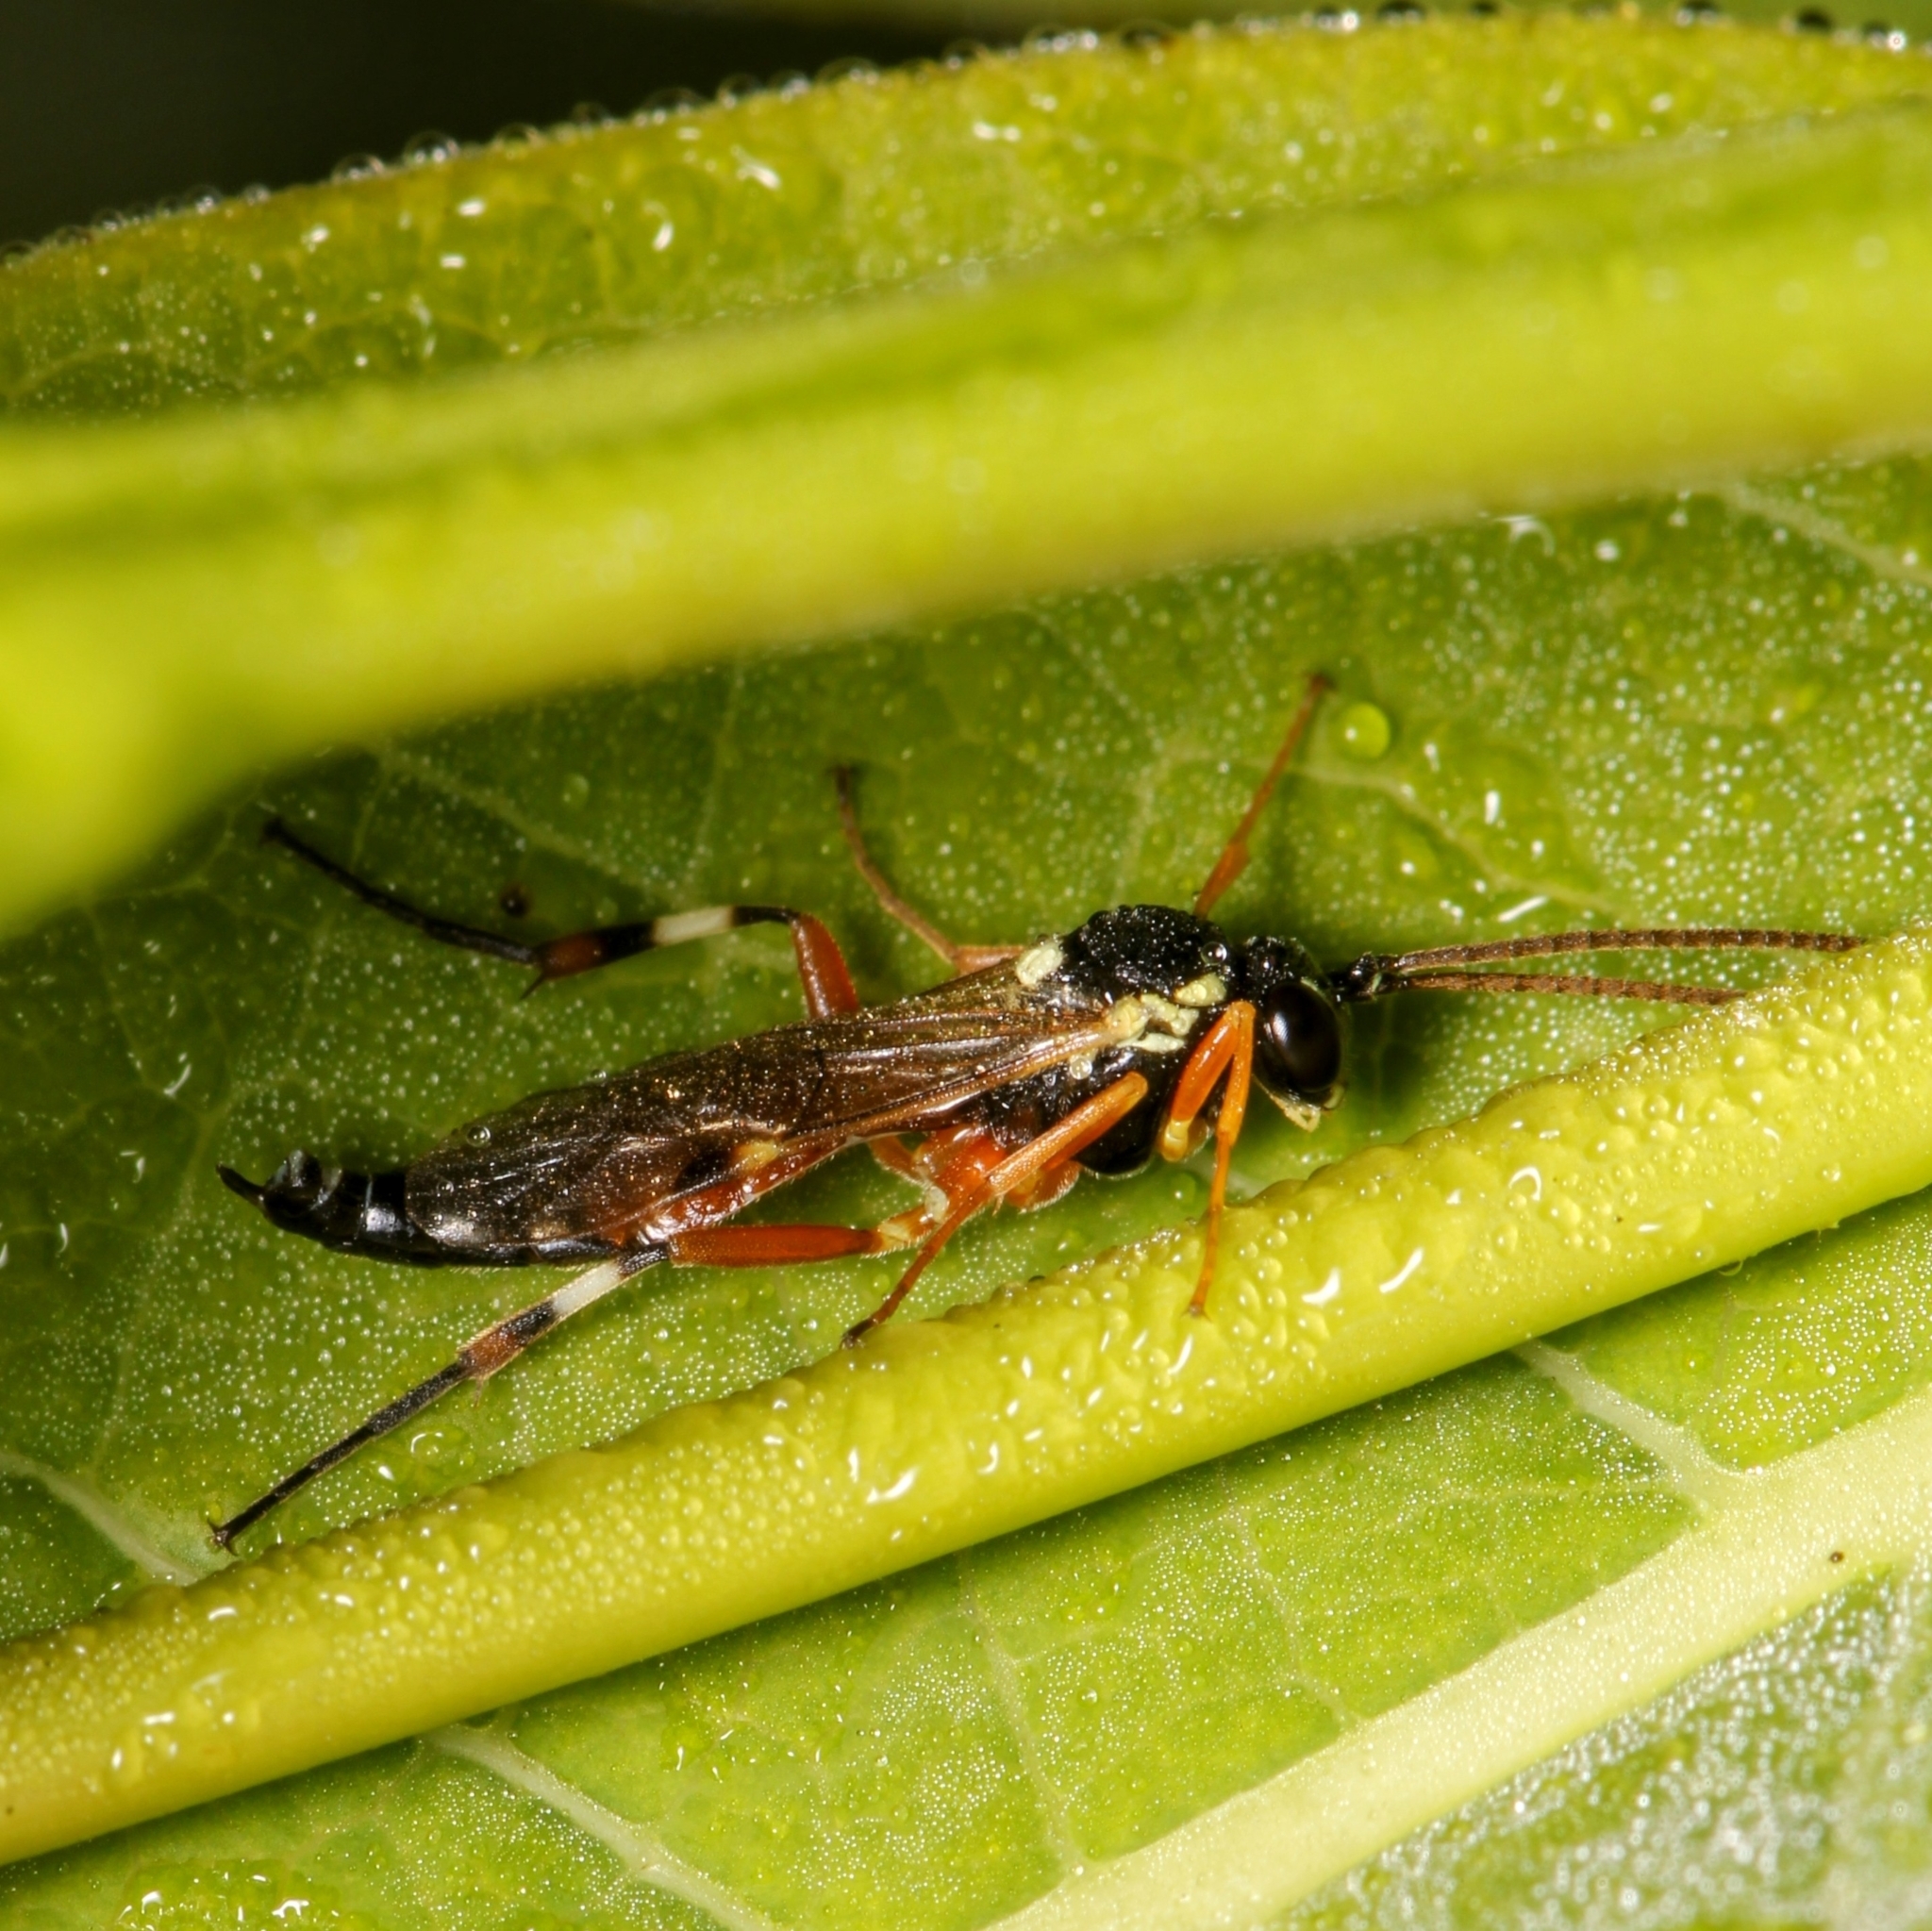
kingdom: Animalia
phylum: Arthropoda
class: Insecta
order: Hymenoptera
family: Ichneumonidae
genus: Diplazon
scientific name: Diplazon laetatorius
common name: Parasitoid wasp
